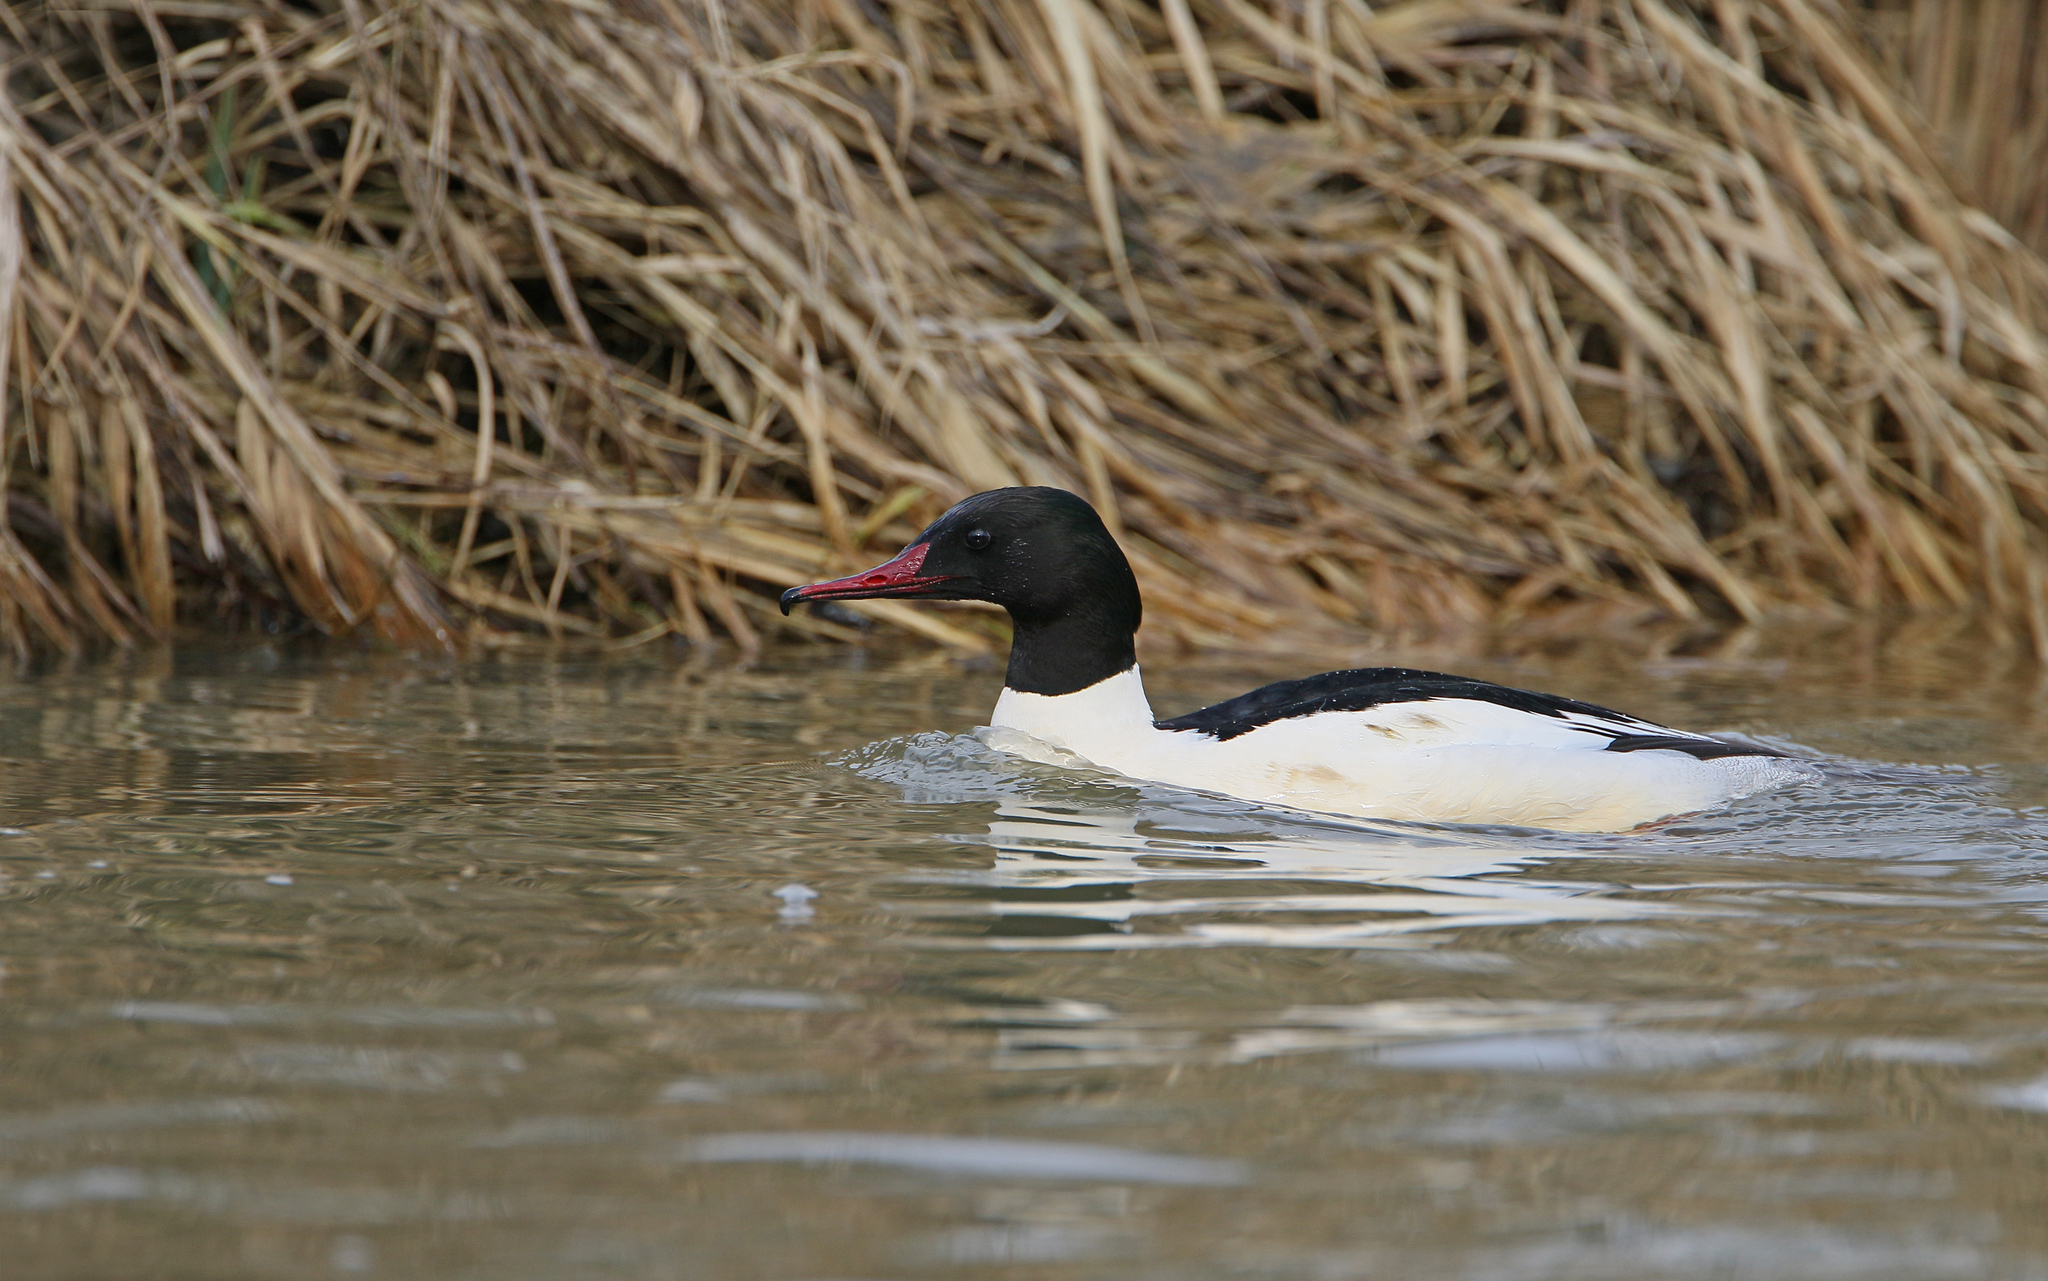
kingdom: Animalia
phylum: Chordata
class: Aves
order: Anseriformes
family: Anatidae
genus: Mergus
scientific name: Mergus merganser
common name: Common merganser
